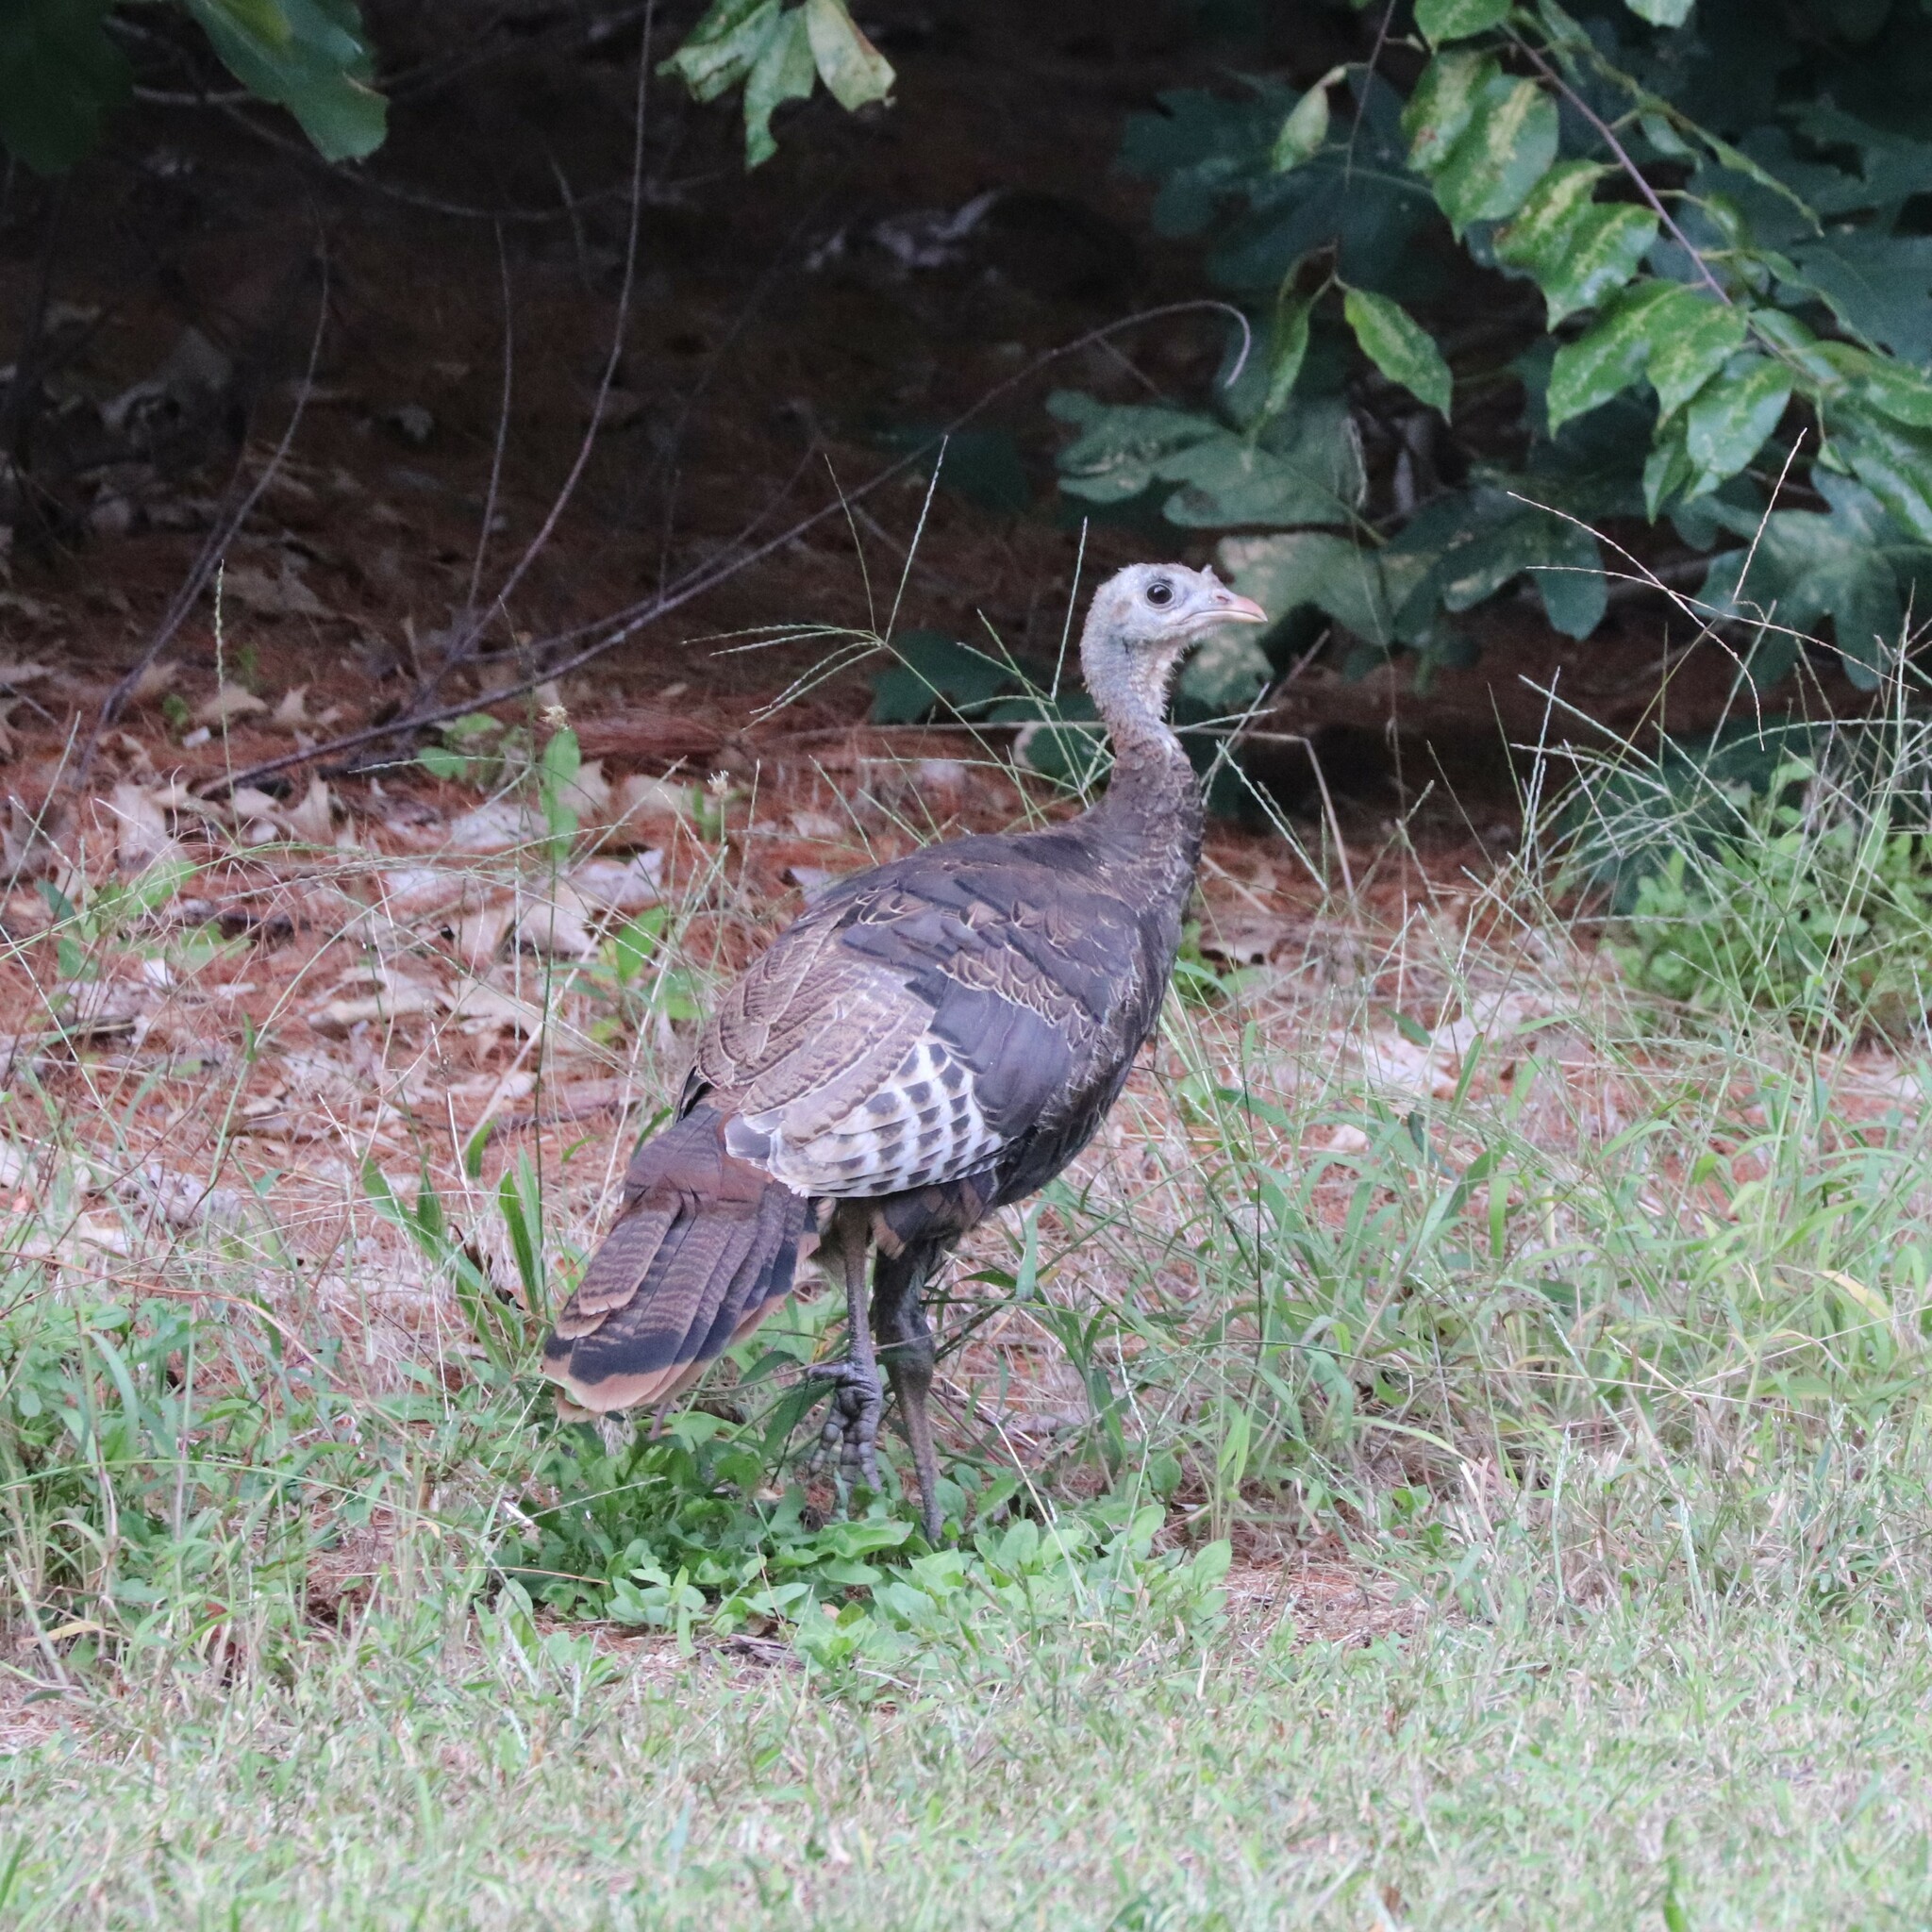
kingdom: Animalia
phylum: Chordata
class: Aves
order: Galliformes
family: Phasianidae
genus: Meleagris
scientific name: Meleagris gallopavo
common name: Wild turkey
